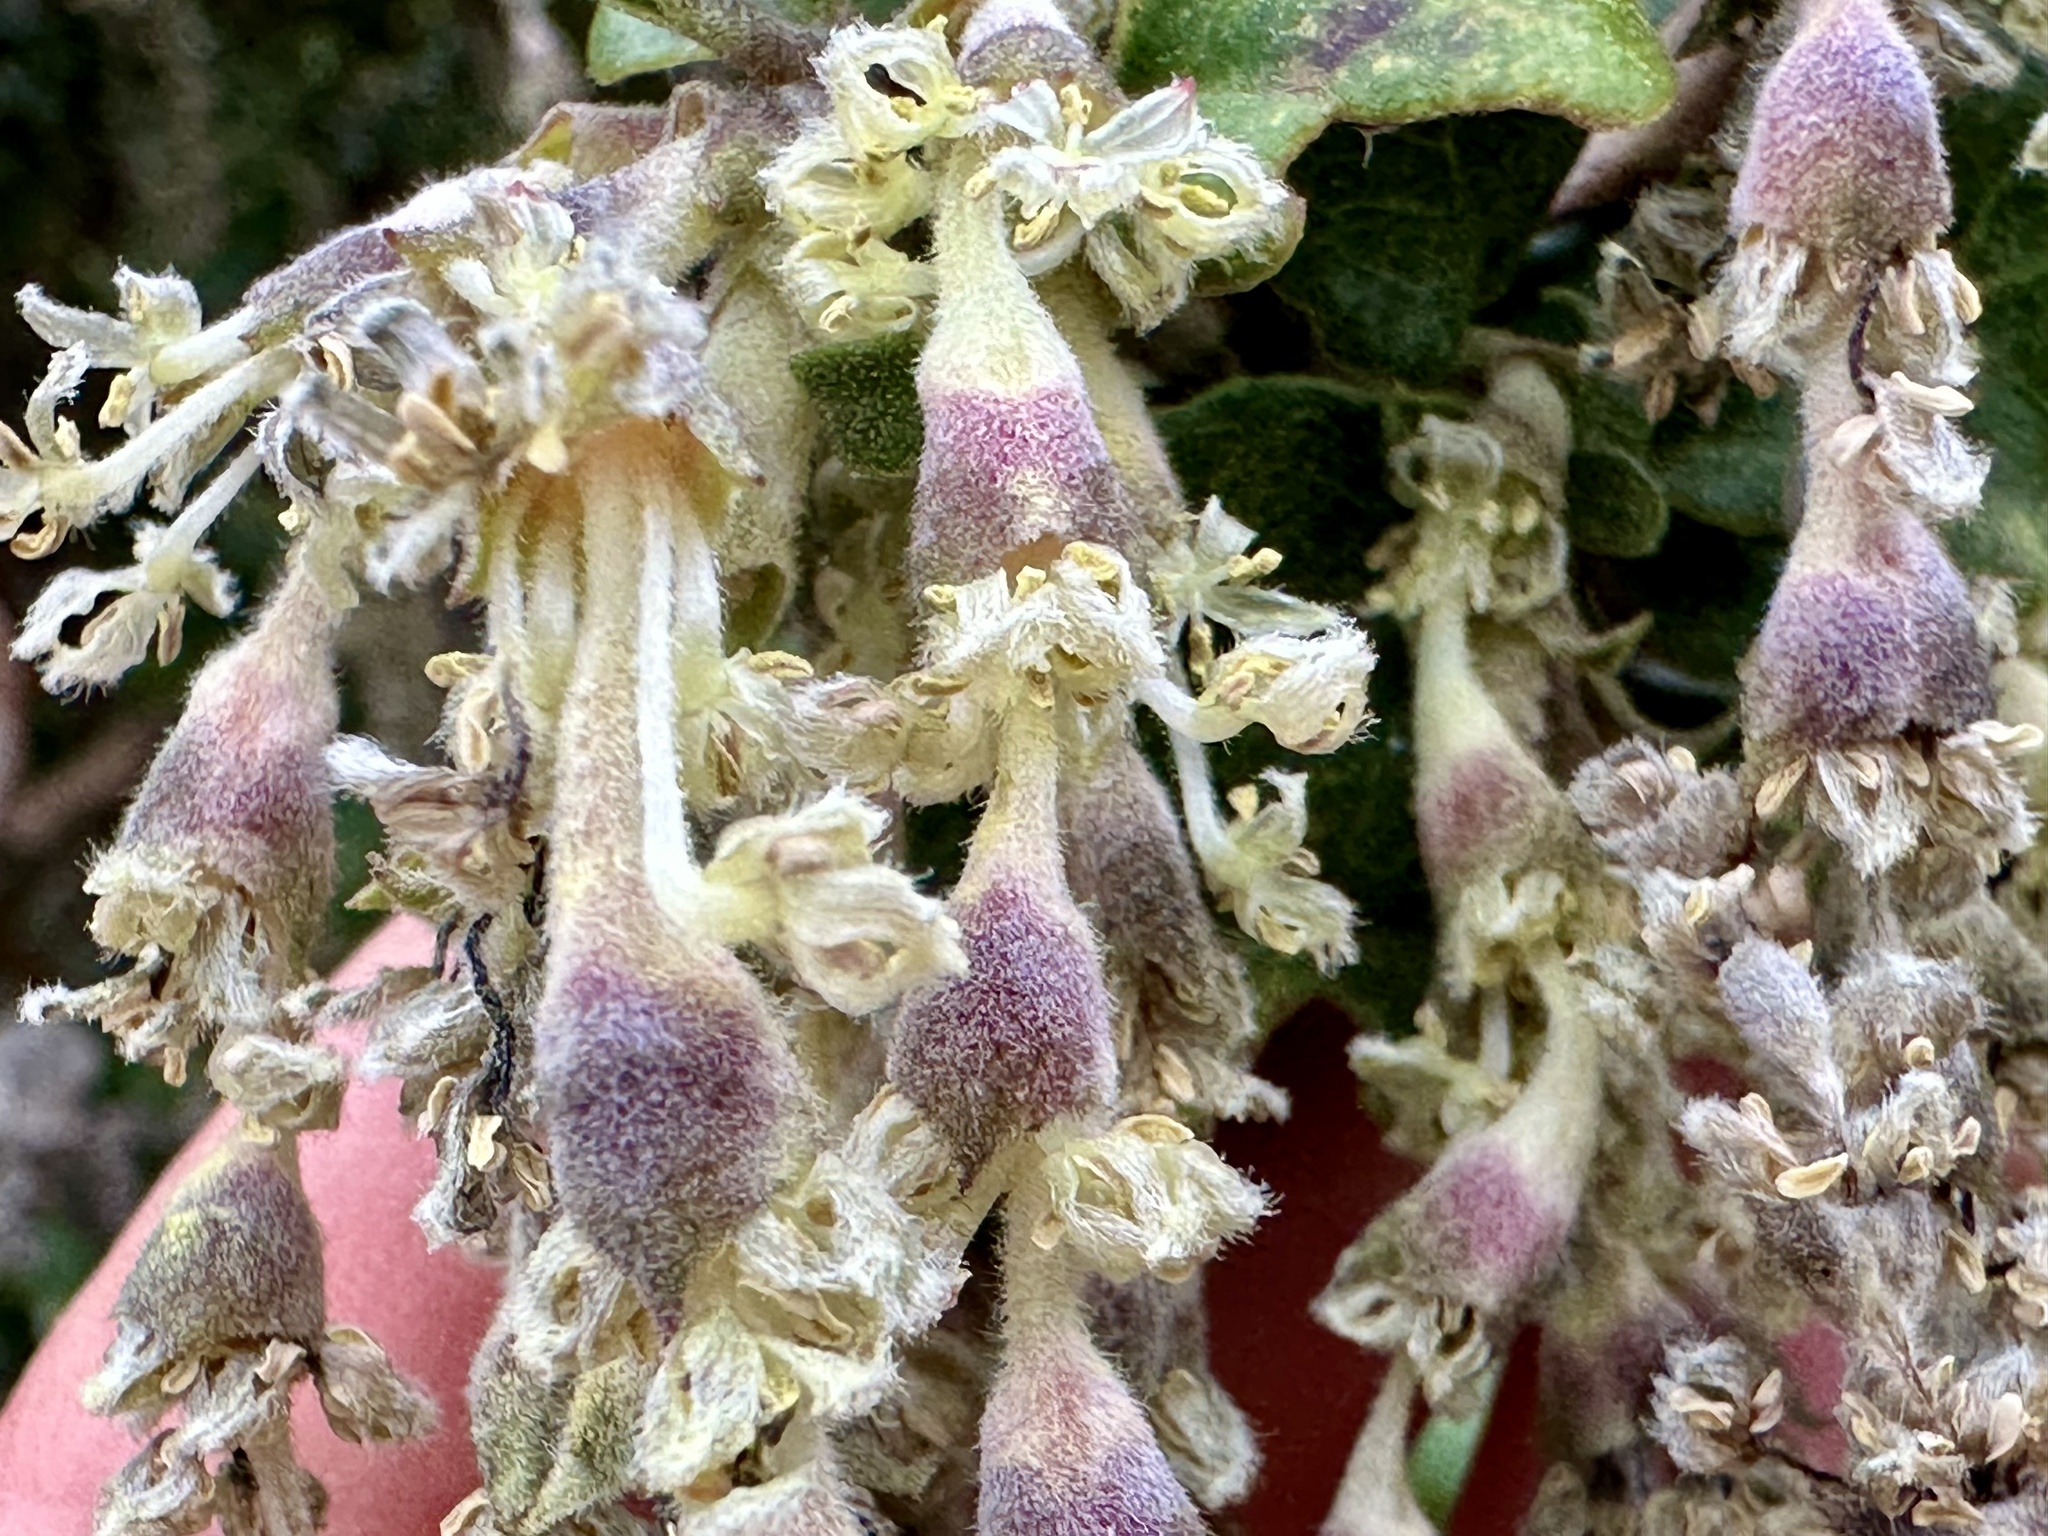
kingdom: Plantae
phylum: Tracheophyta
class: Magnoliopsida
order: Garryales
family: Garryaceae
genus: Garrya
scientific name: Garrya elliptica
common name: Silk-tassel
